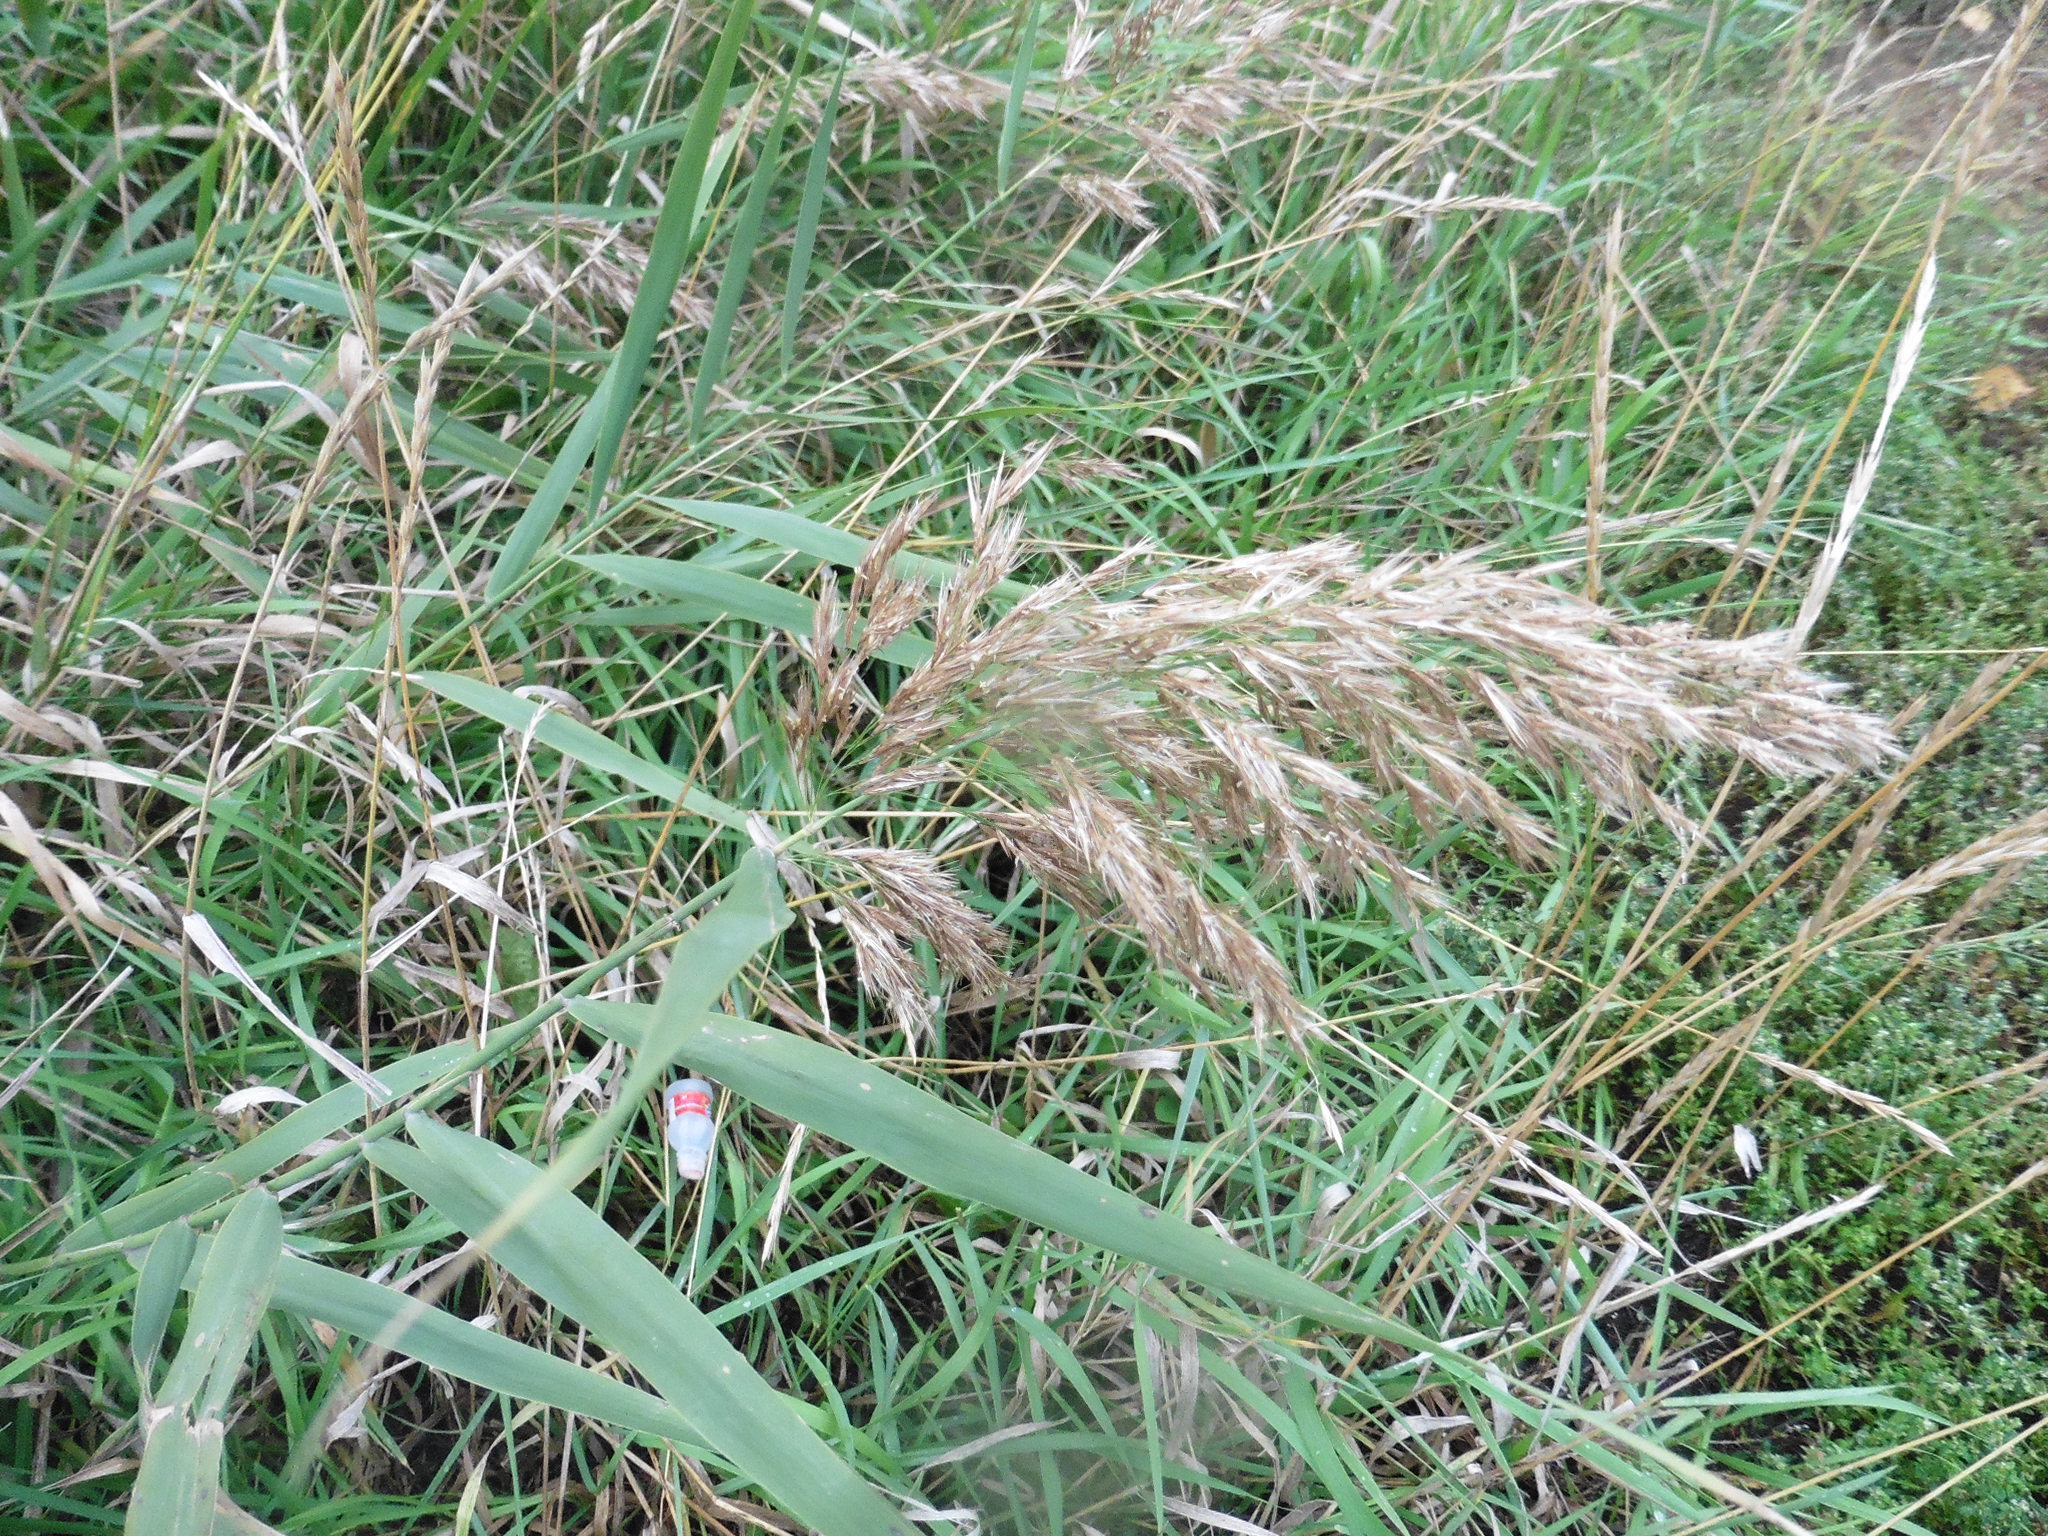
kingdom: Plantae
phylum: Tracheophyta
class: Liliopsida
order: Poales
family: Poaceae
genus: Phragmites
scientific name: Phragmites australis
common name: Common reed
